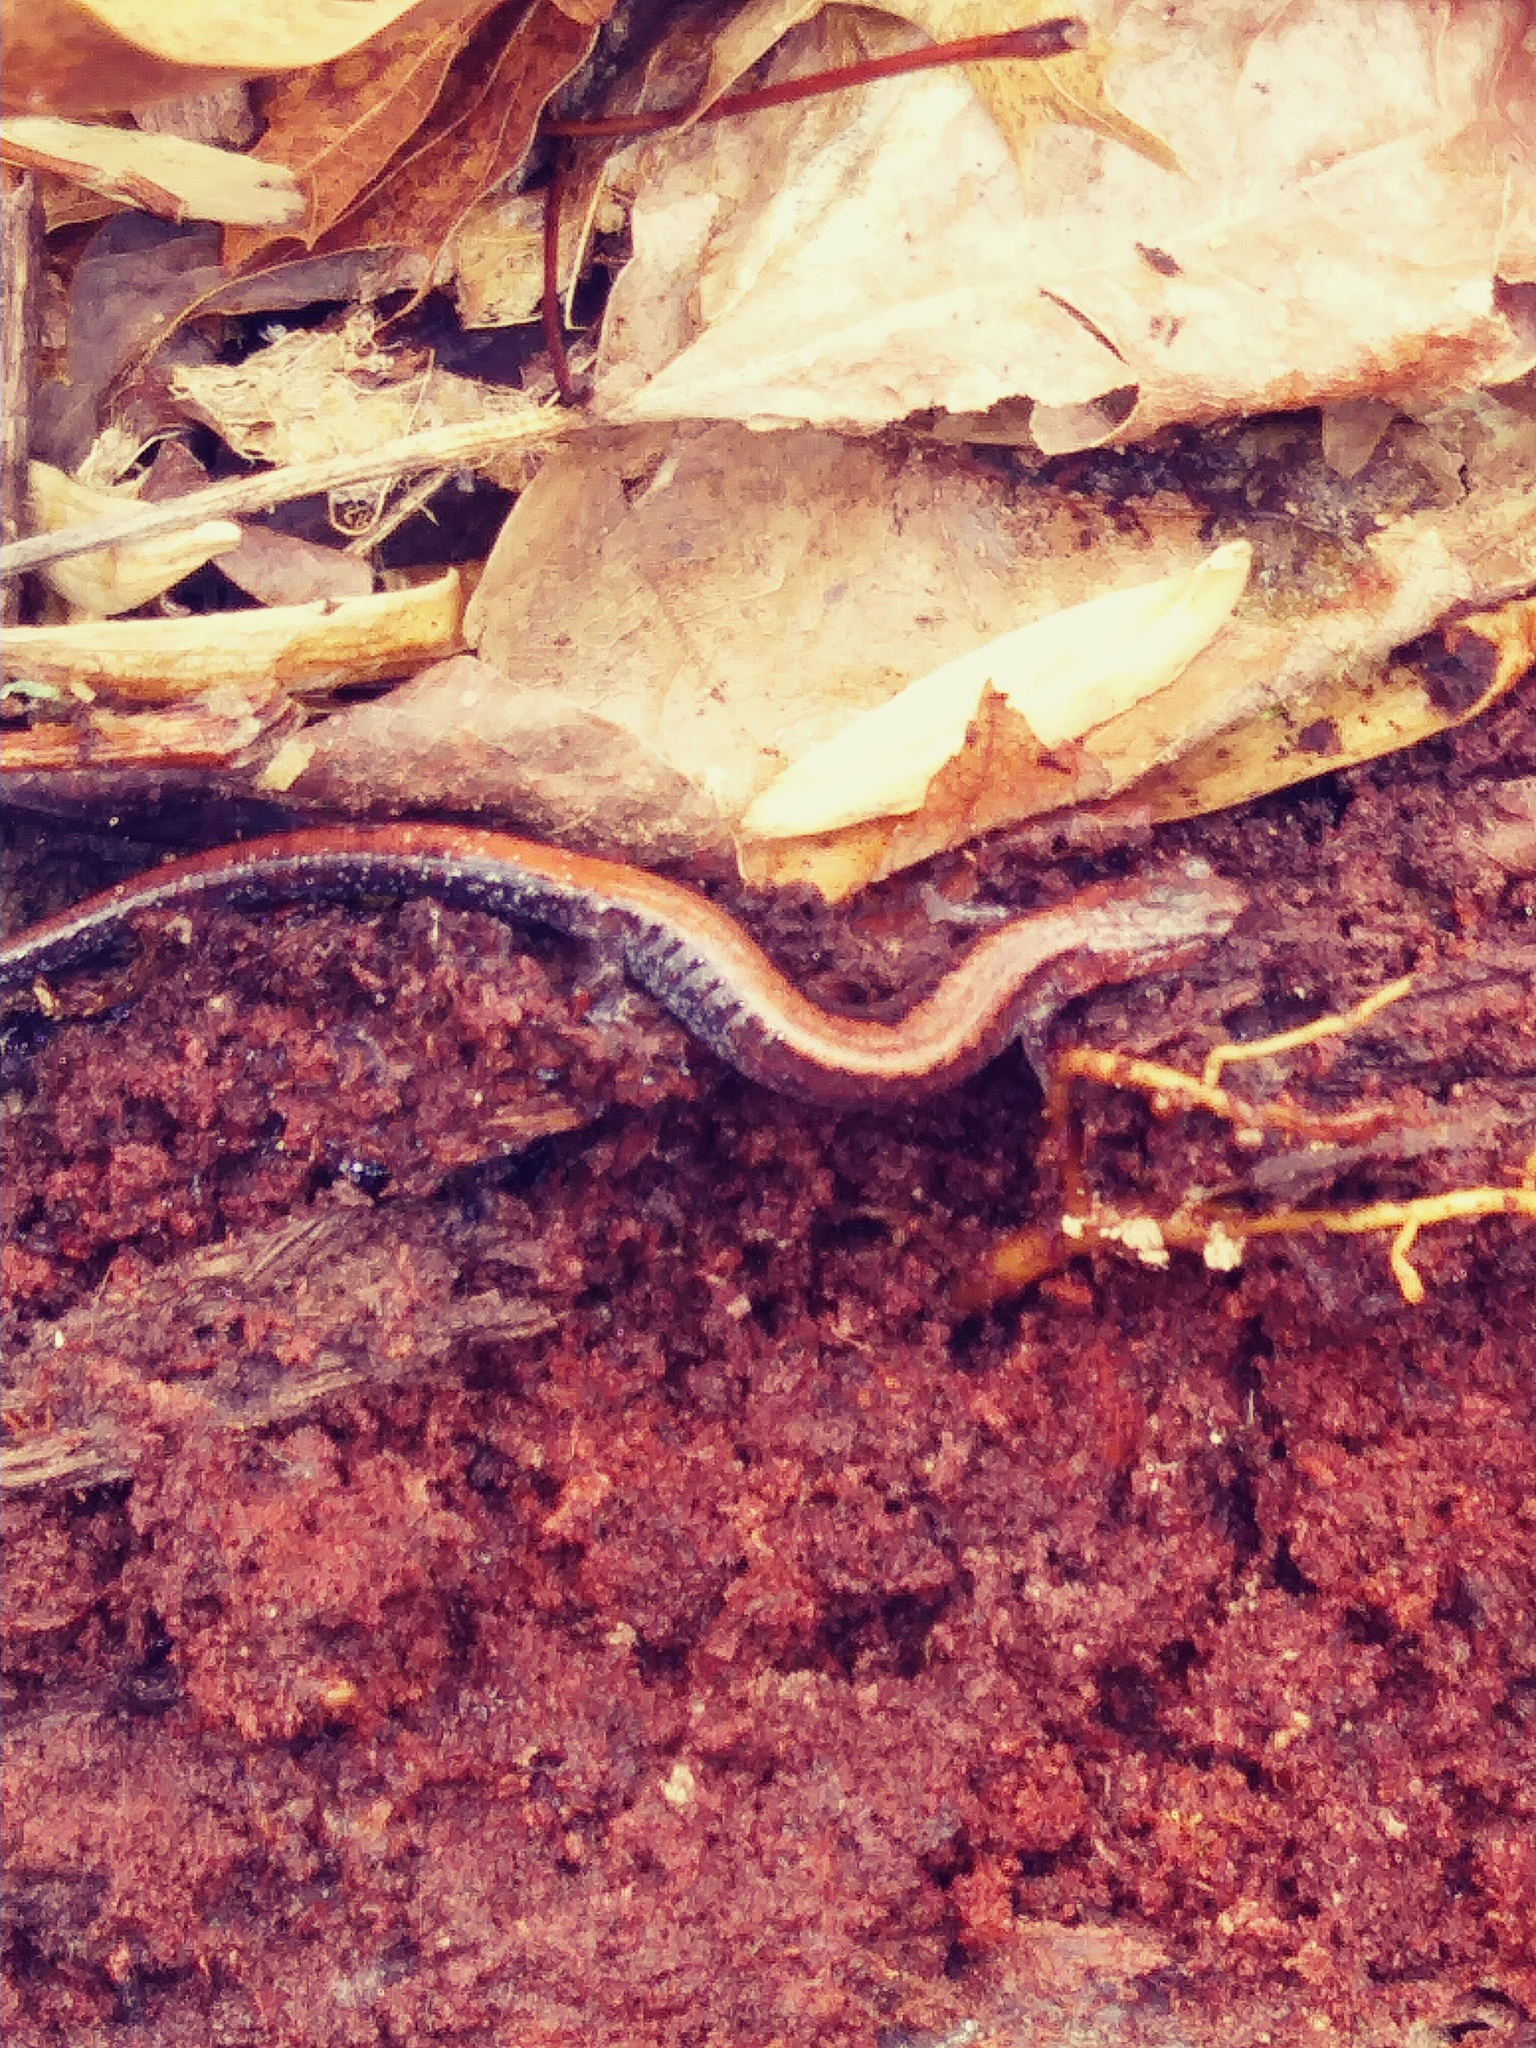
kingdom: Animalia
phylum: Chordata
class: Amphibia
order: Caudata
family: Plethodontidae
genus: Plethodon
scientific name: Plethodon cinereus
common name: Redback salamander
